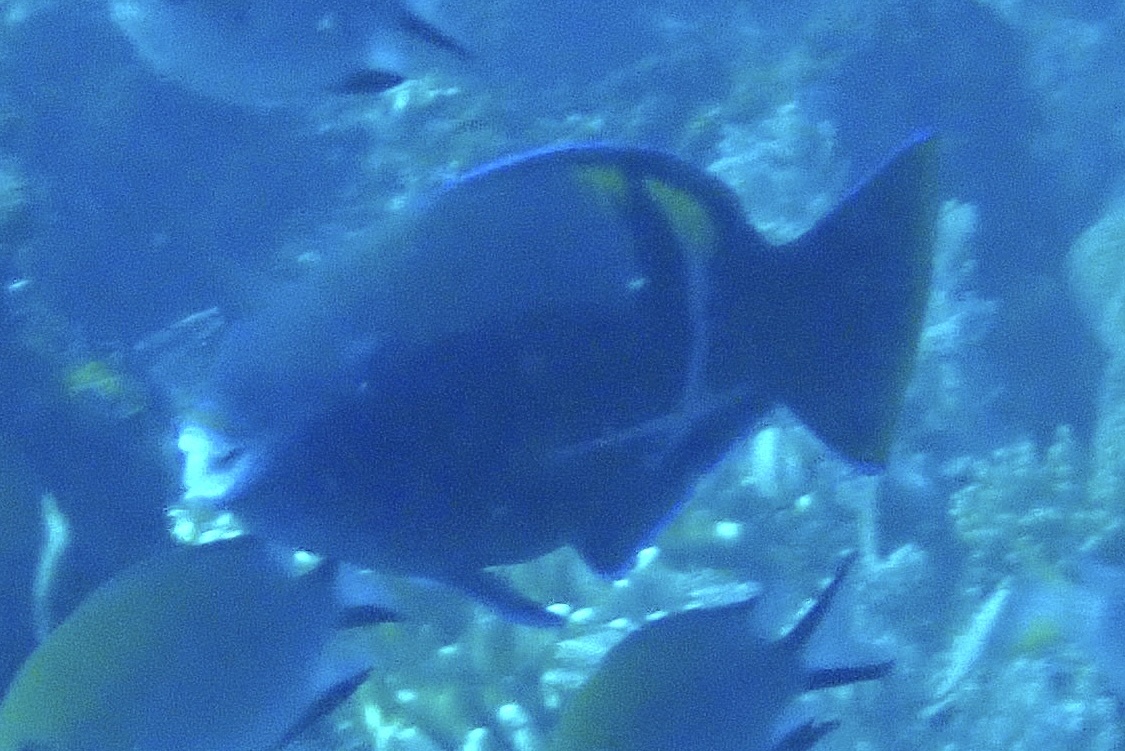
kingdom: Animalia
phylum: Chordata
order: Perciformes
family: Scaridae
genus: Scarus
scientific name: Scarus schlegeli
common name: Schlegel's parrotfish
